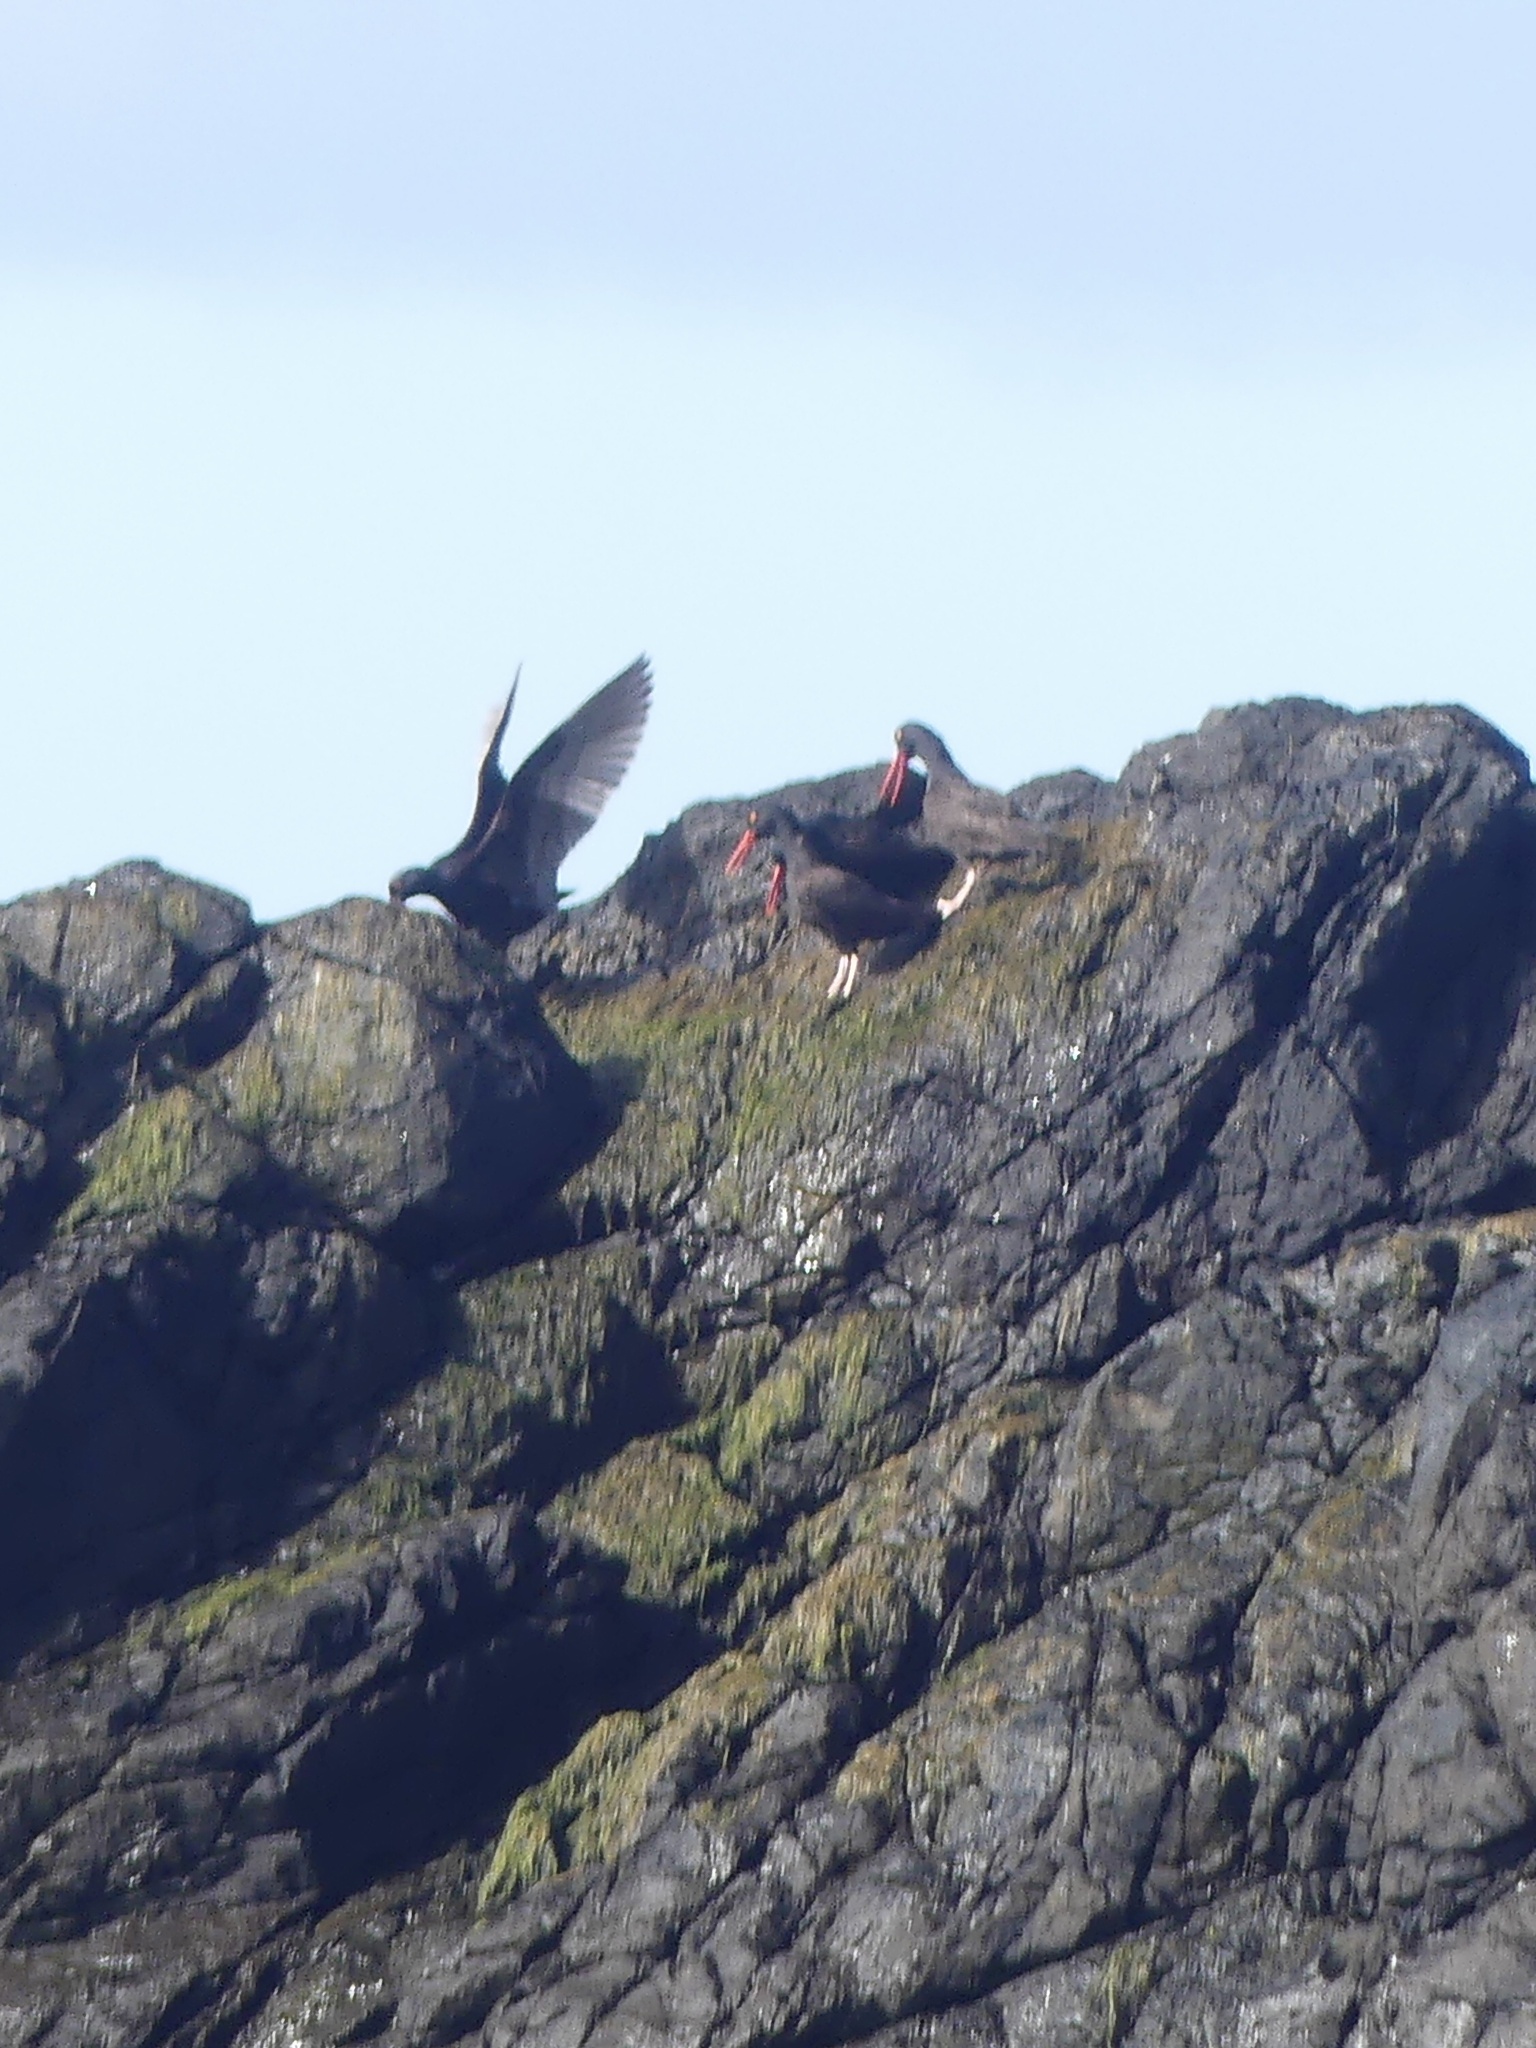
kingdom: Animalia
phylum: Chordata
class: Aves
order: Charadriiformes
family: Haematopodidae
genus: Haematopus
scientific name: Haematopus bachmani
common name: Black oystercatcher
